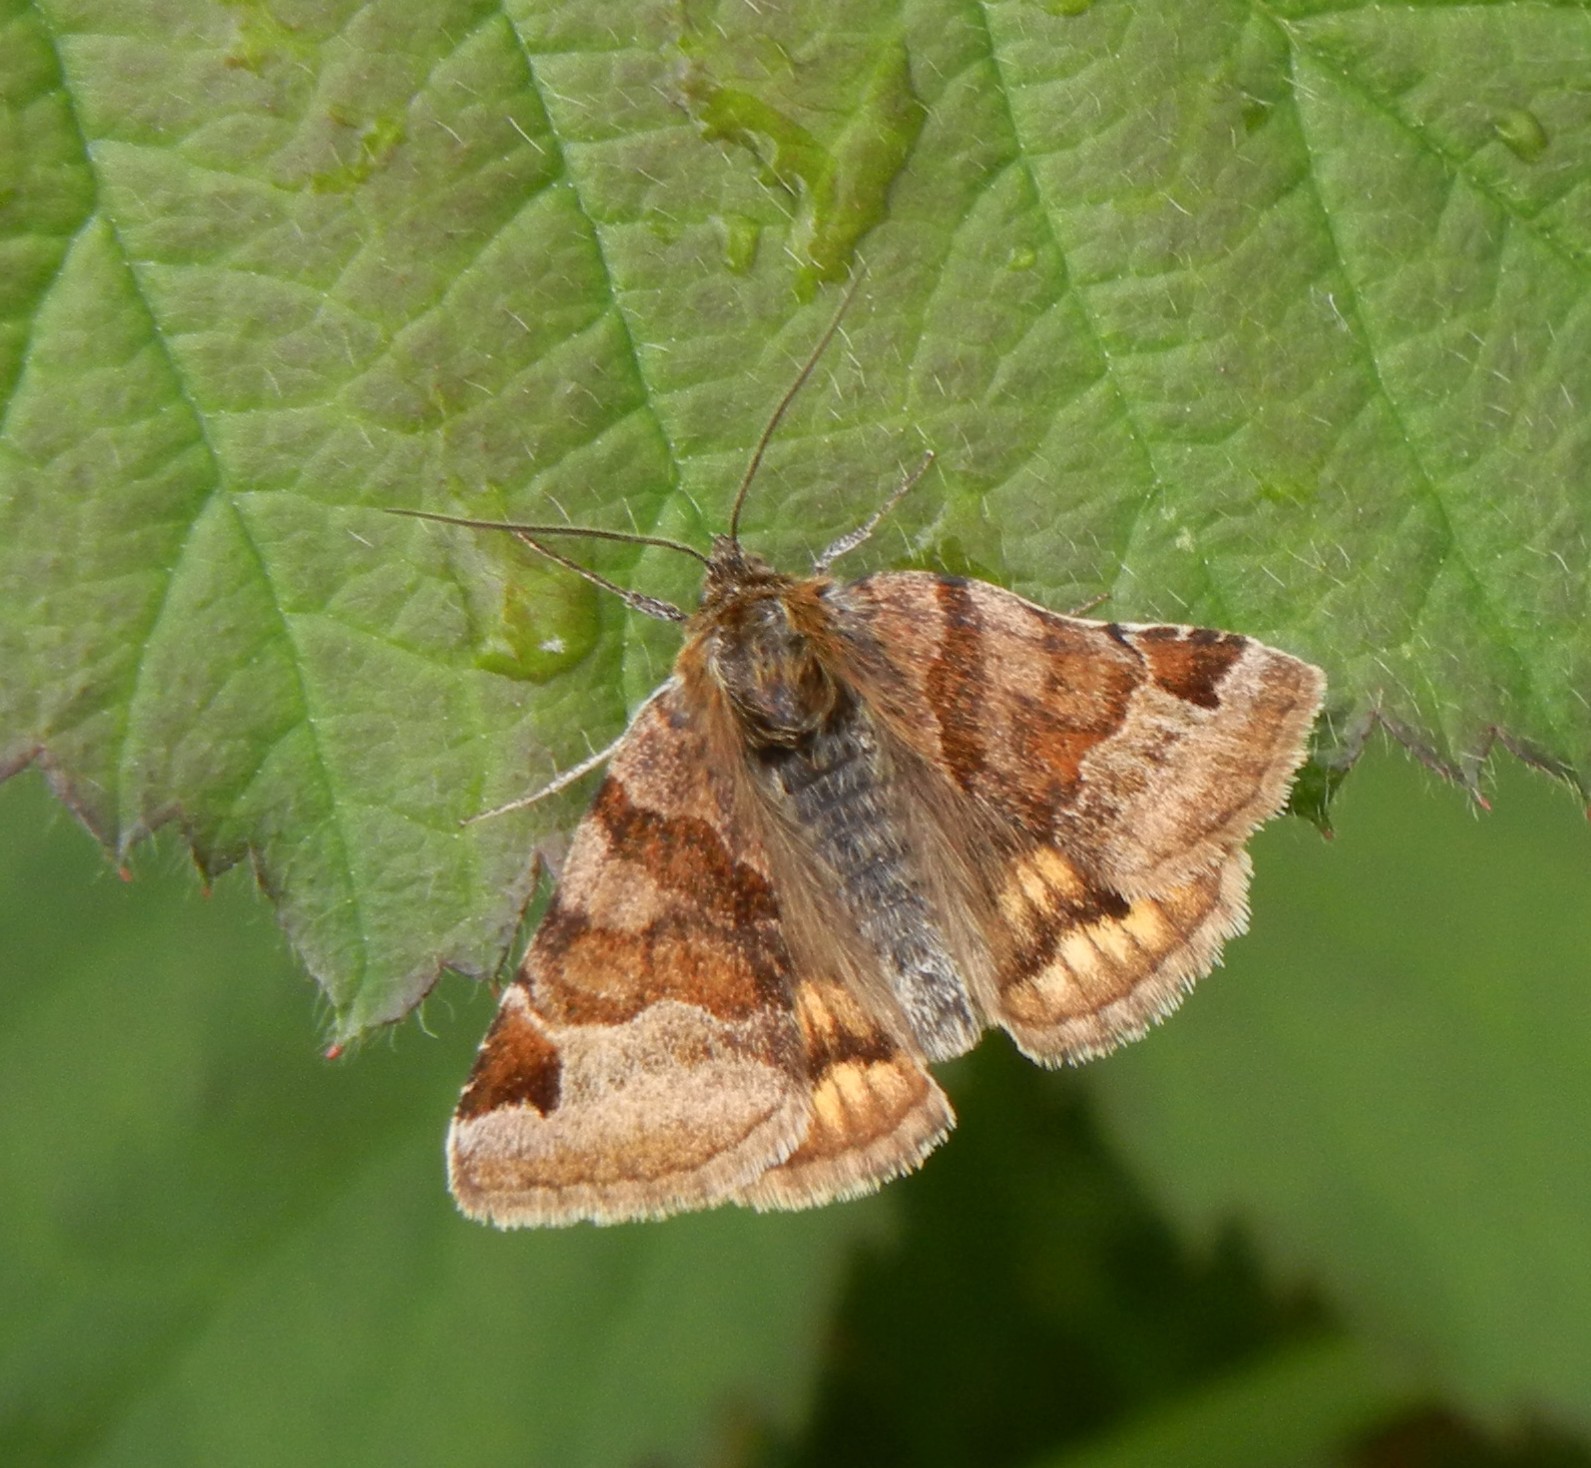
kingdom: Animalia
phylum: Arthropoda
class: Insecta
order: Lepidoptera
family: Erebidae
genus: Euclidia
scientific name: Euclidia glyphica
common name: Burnet companion
